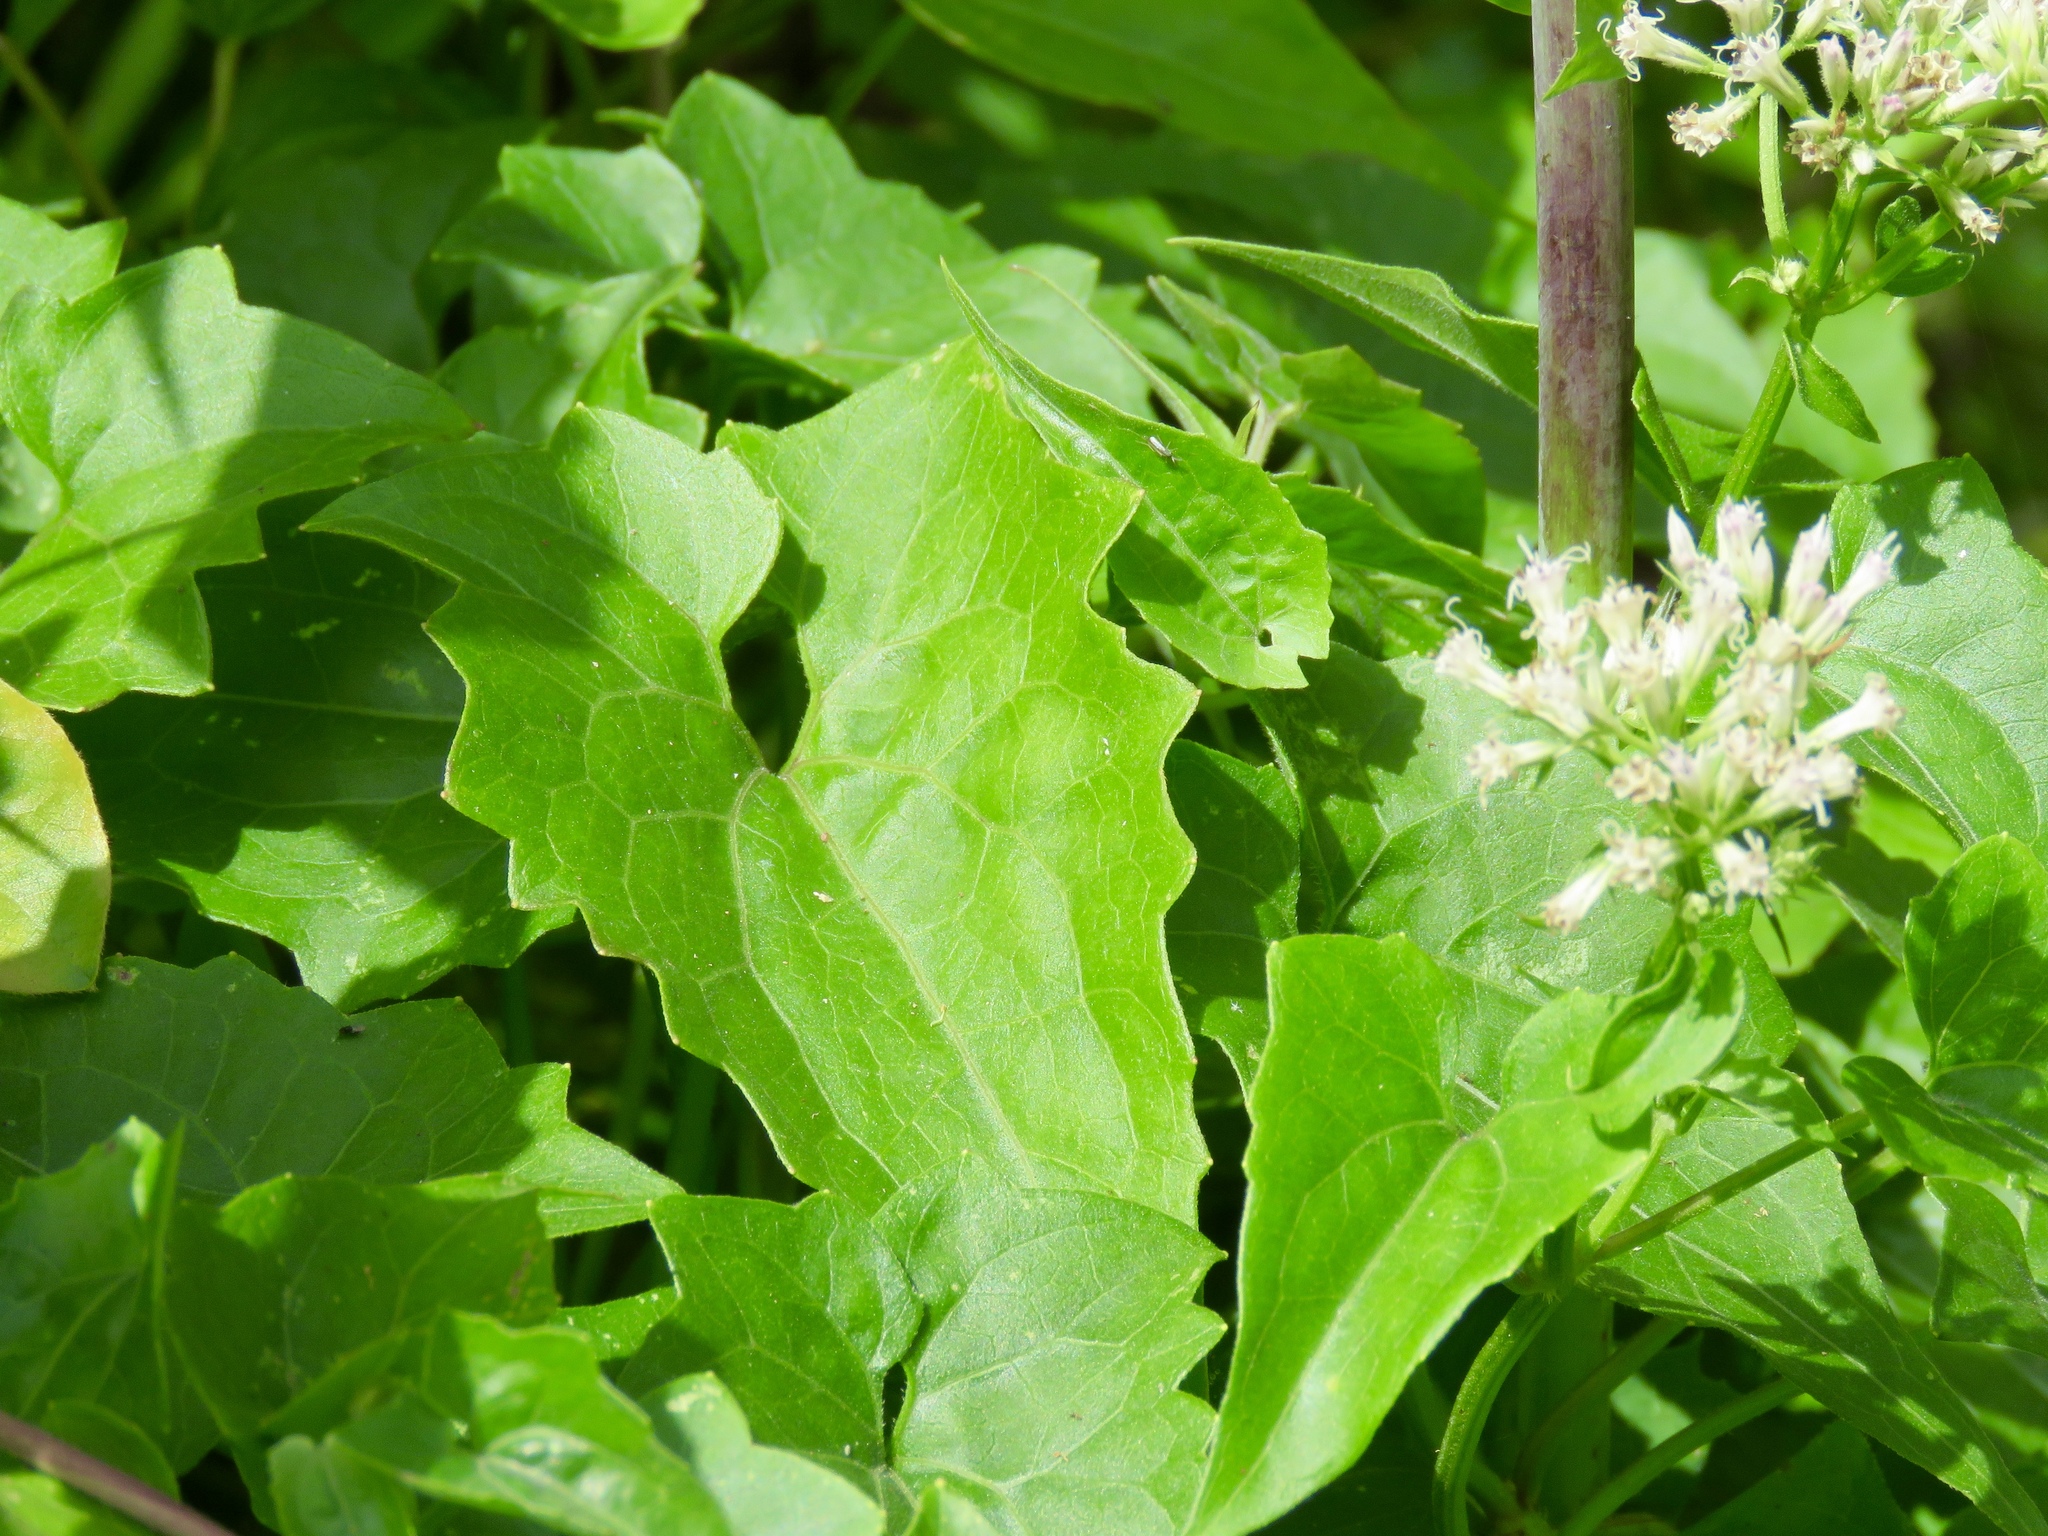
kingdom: Plantae
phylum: Tracheophyta
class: Magnoliopsida
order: Asterales
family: Asteraceae
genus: Mikania
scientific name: Mikania scandens
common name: Climbing hempvine
